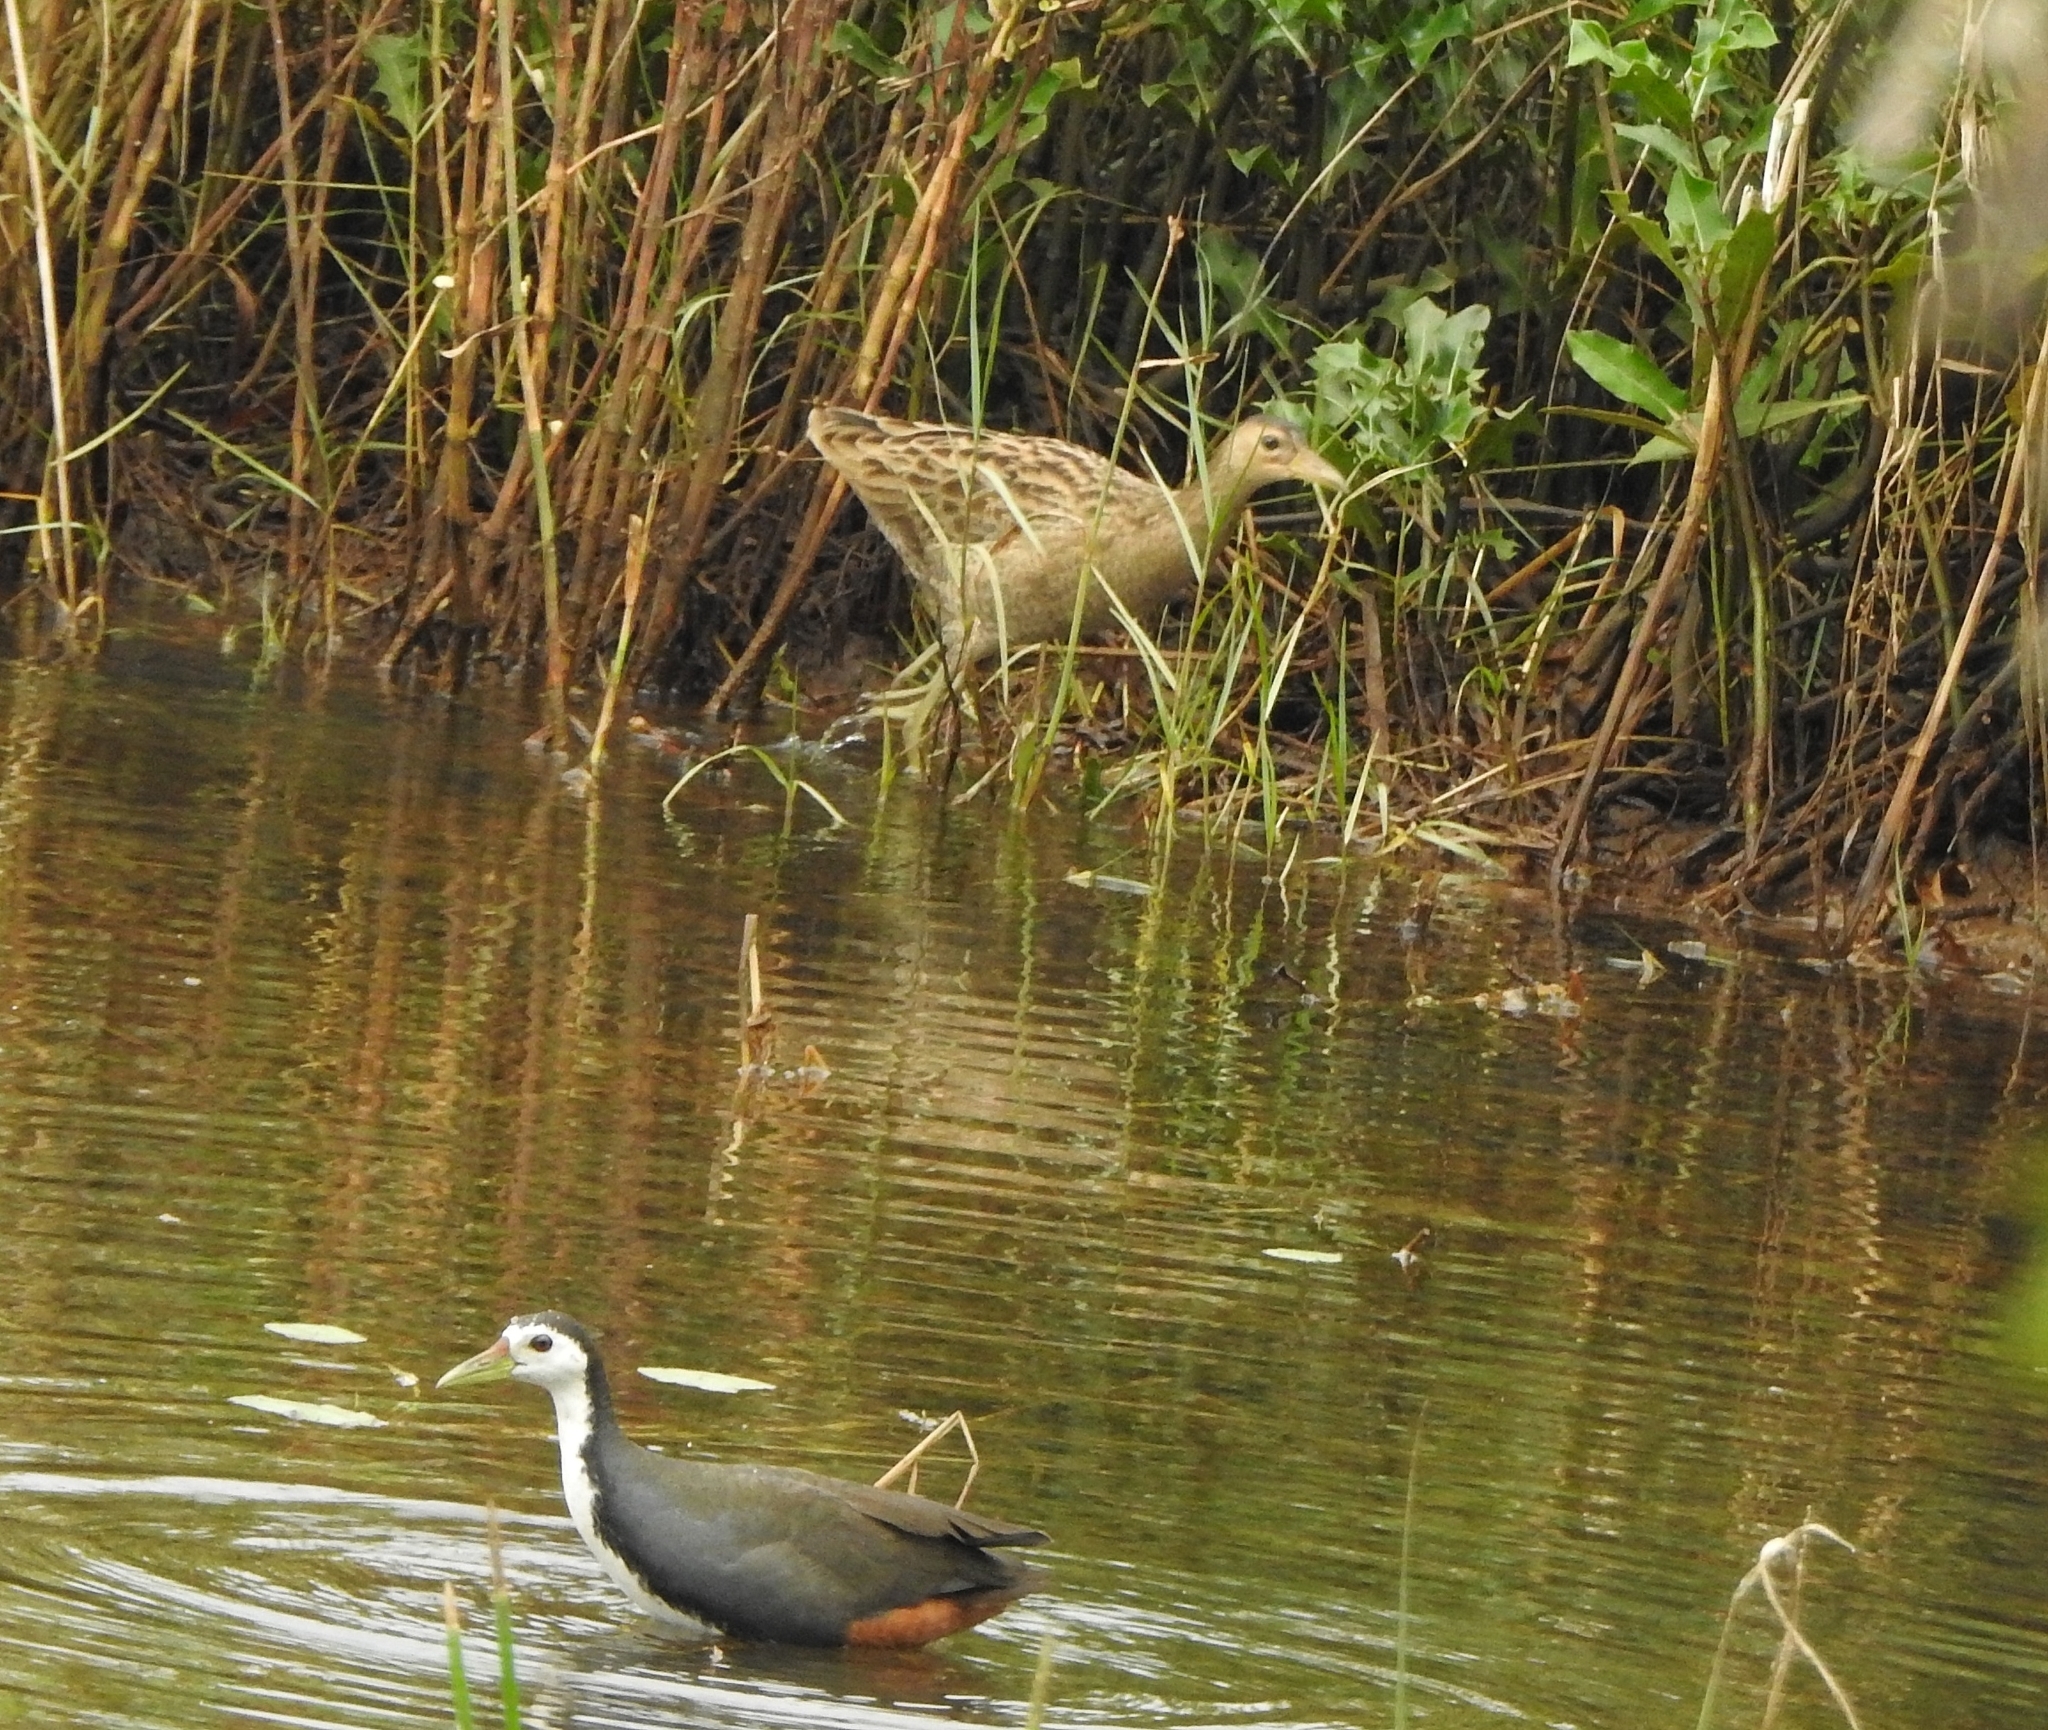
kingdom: Animalia
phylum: Chordata
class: Aves
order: Gruiformes
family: Rallidae
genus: Amaurornis
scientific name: Amaurornis phoenicurus
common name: White-breasted waterhen
